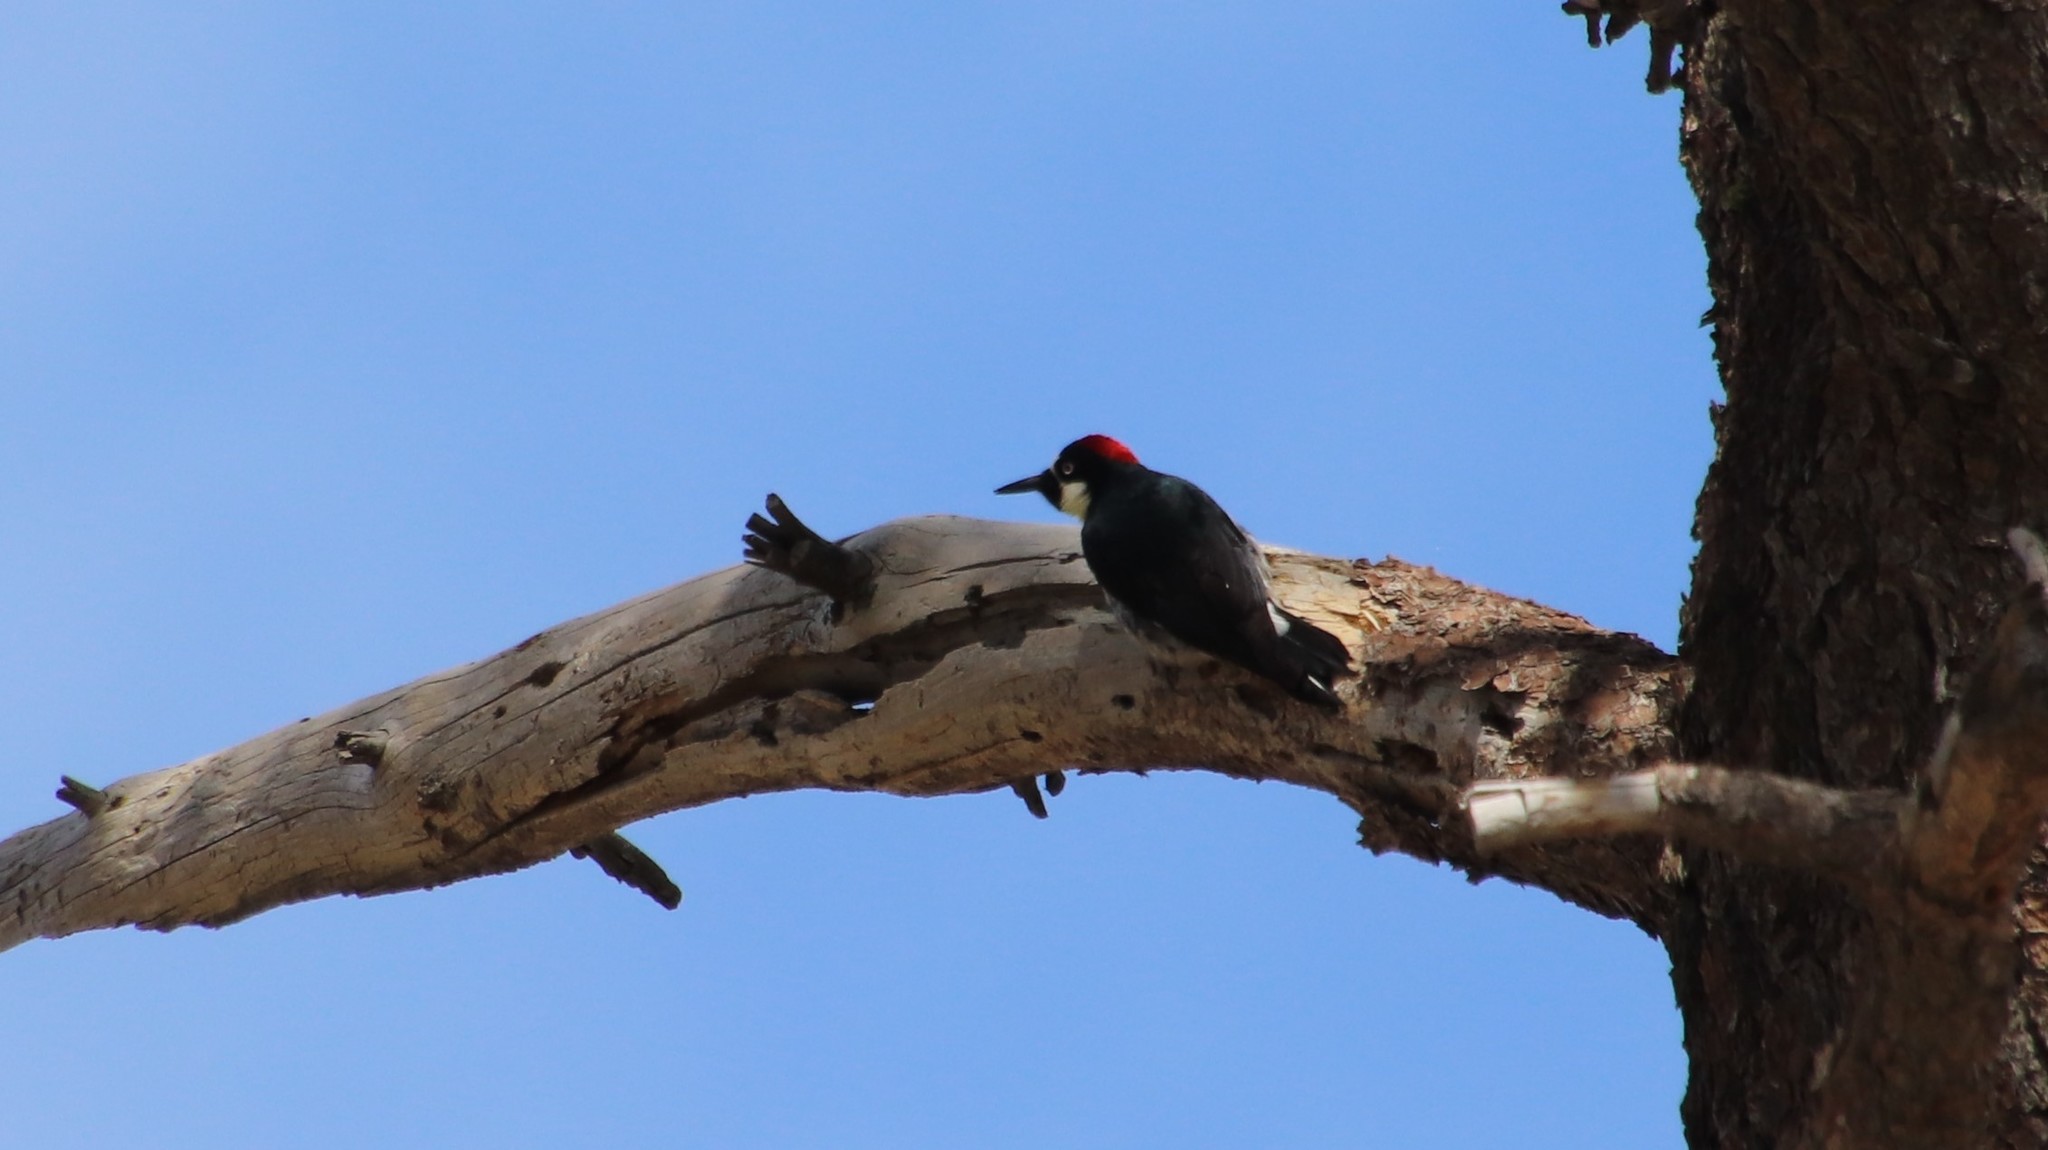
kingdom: Animalia
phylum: Chordata
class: Aves
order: Piciformes
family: Picidae
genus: Melanerpes
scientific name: Melanerpes formicivorus
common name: Acorn woodpecker
